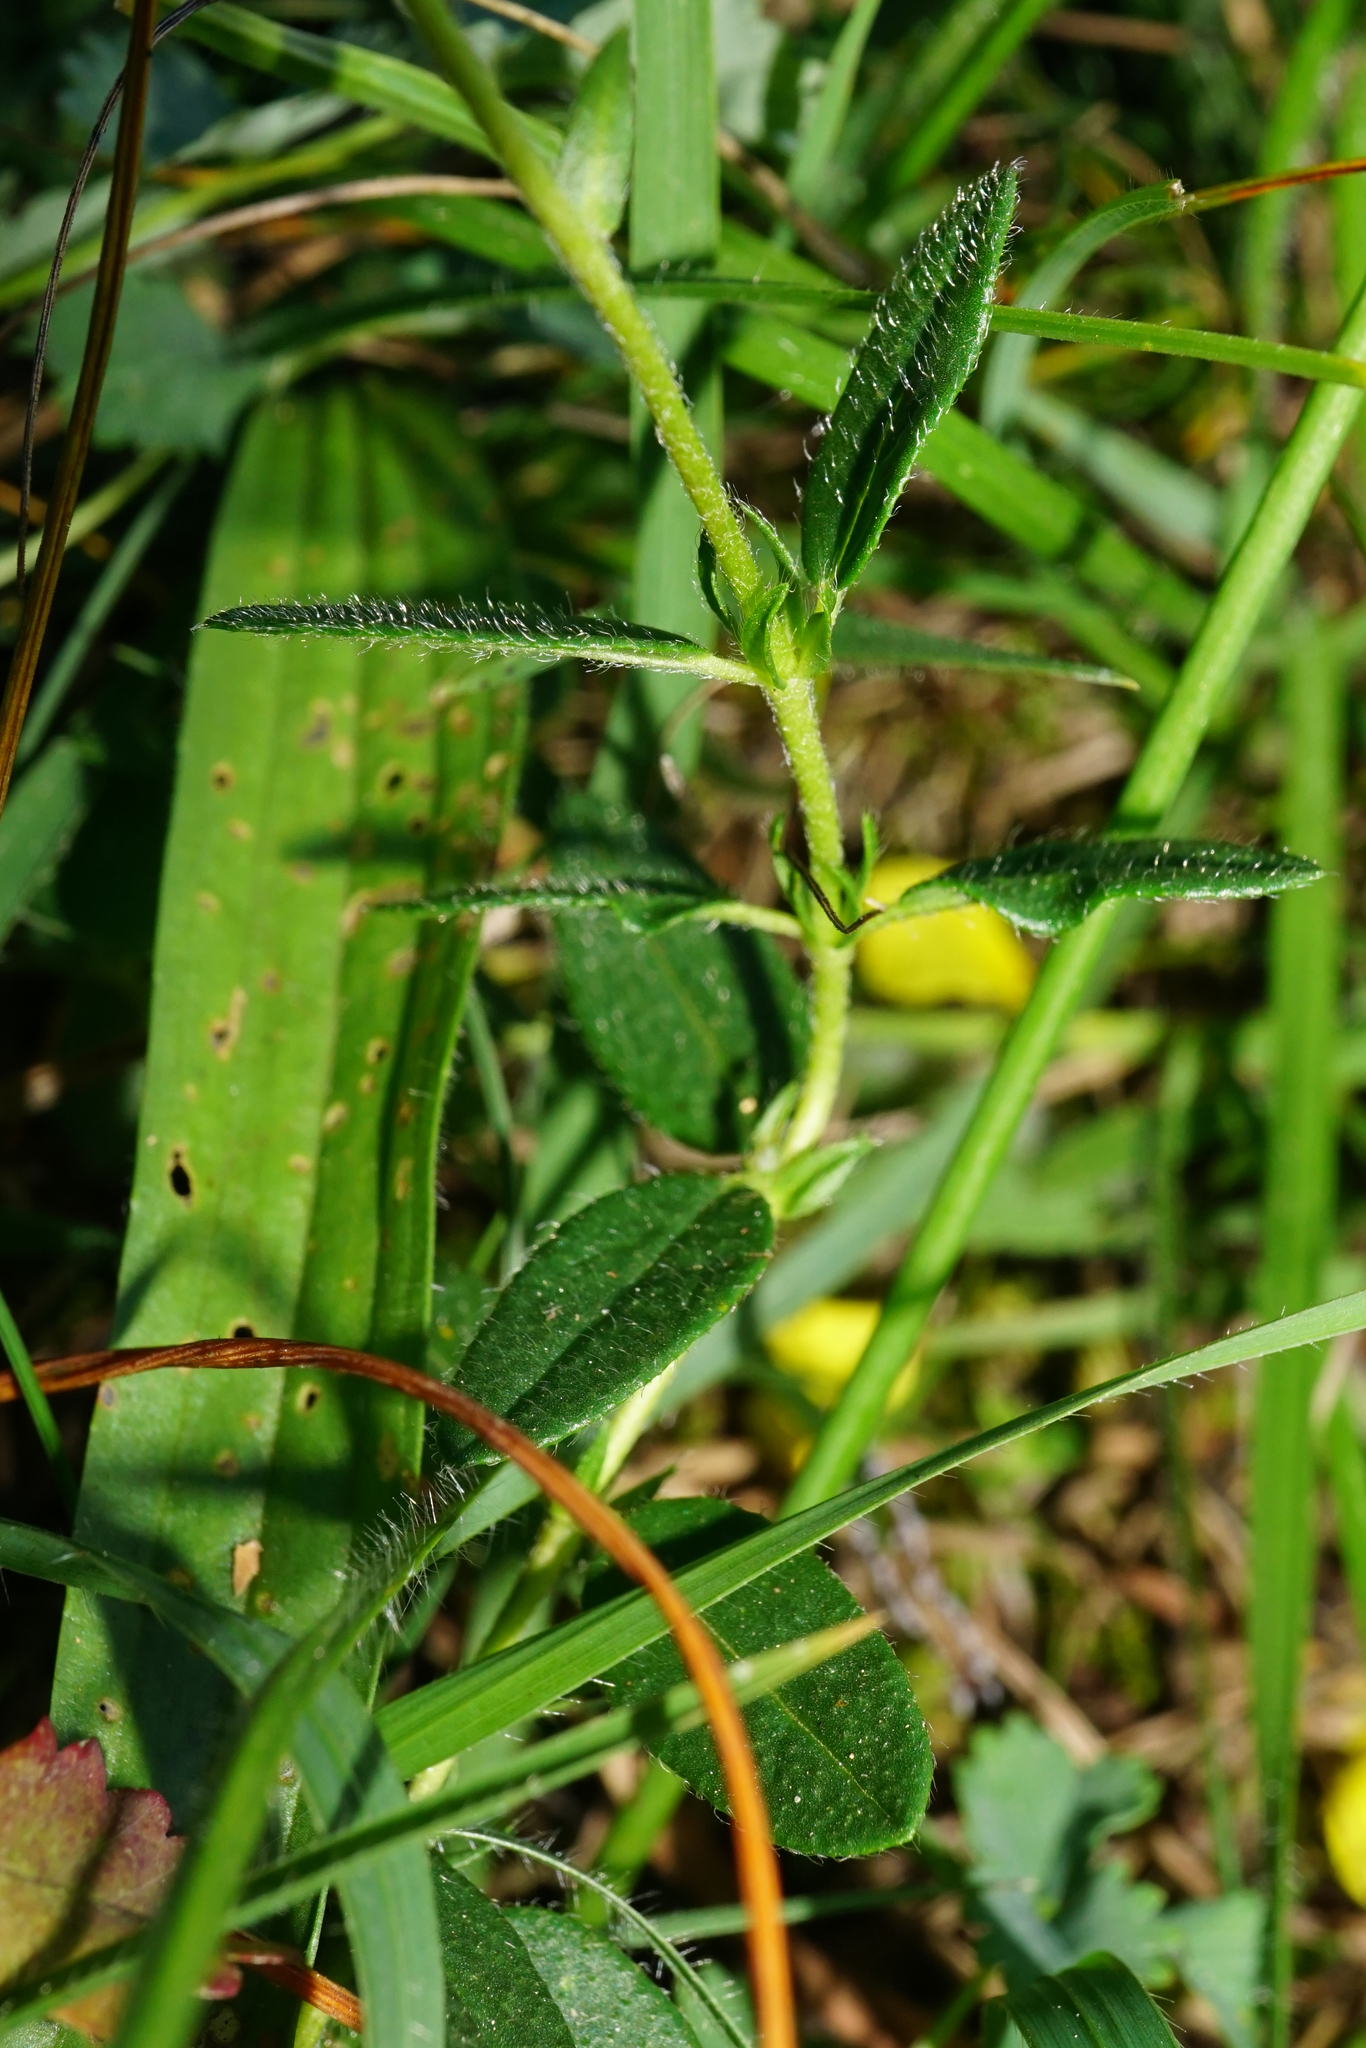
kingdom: Plantae
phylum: Tracheophyta
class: Magnoliopsida
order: Malvales
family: Cistaceae
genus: Helianthemum
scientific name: Helianthemum nummularium
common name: Common rock-rose
